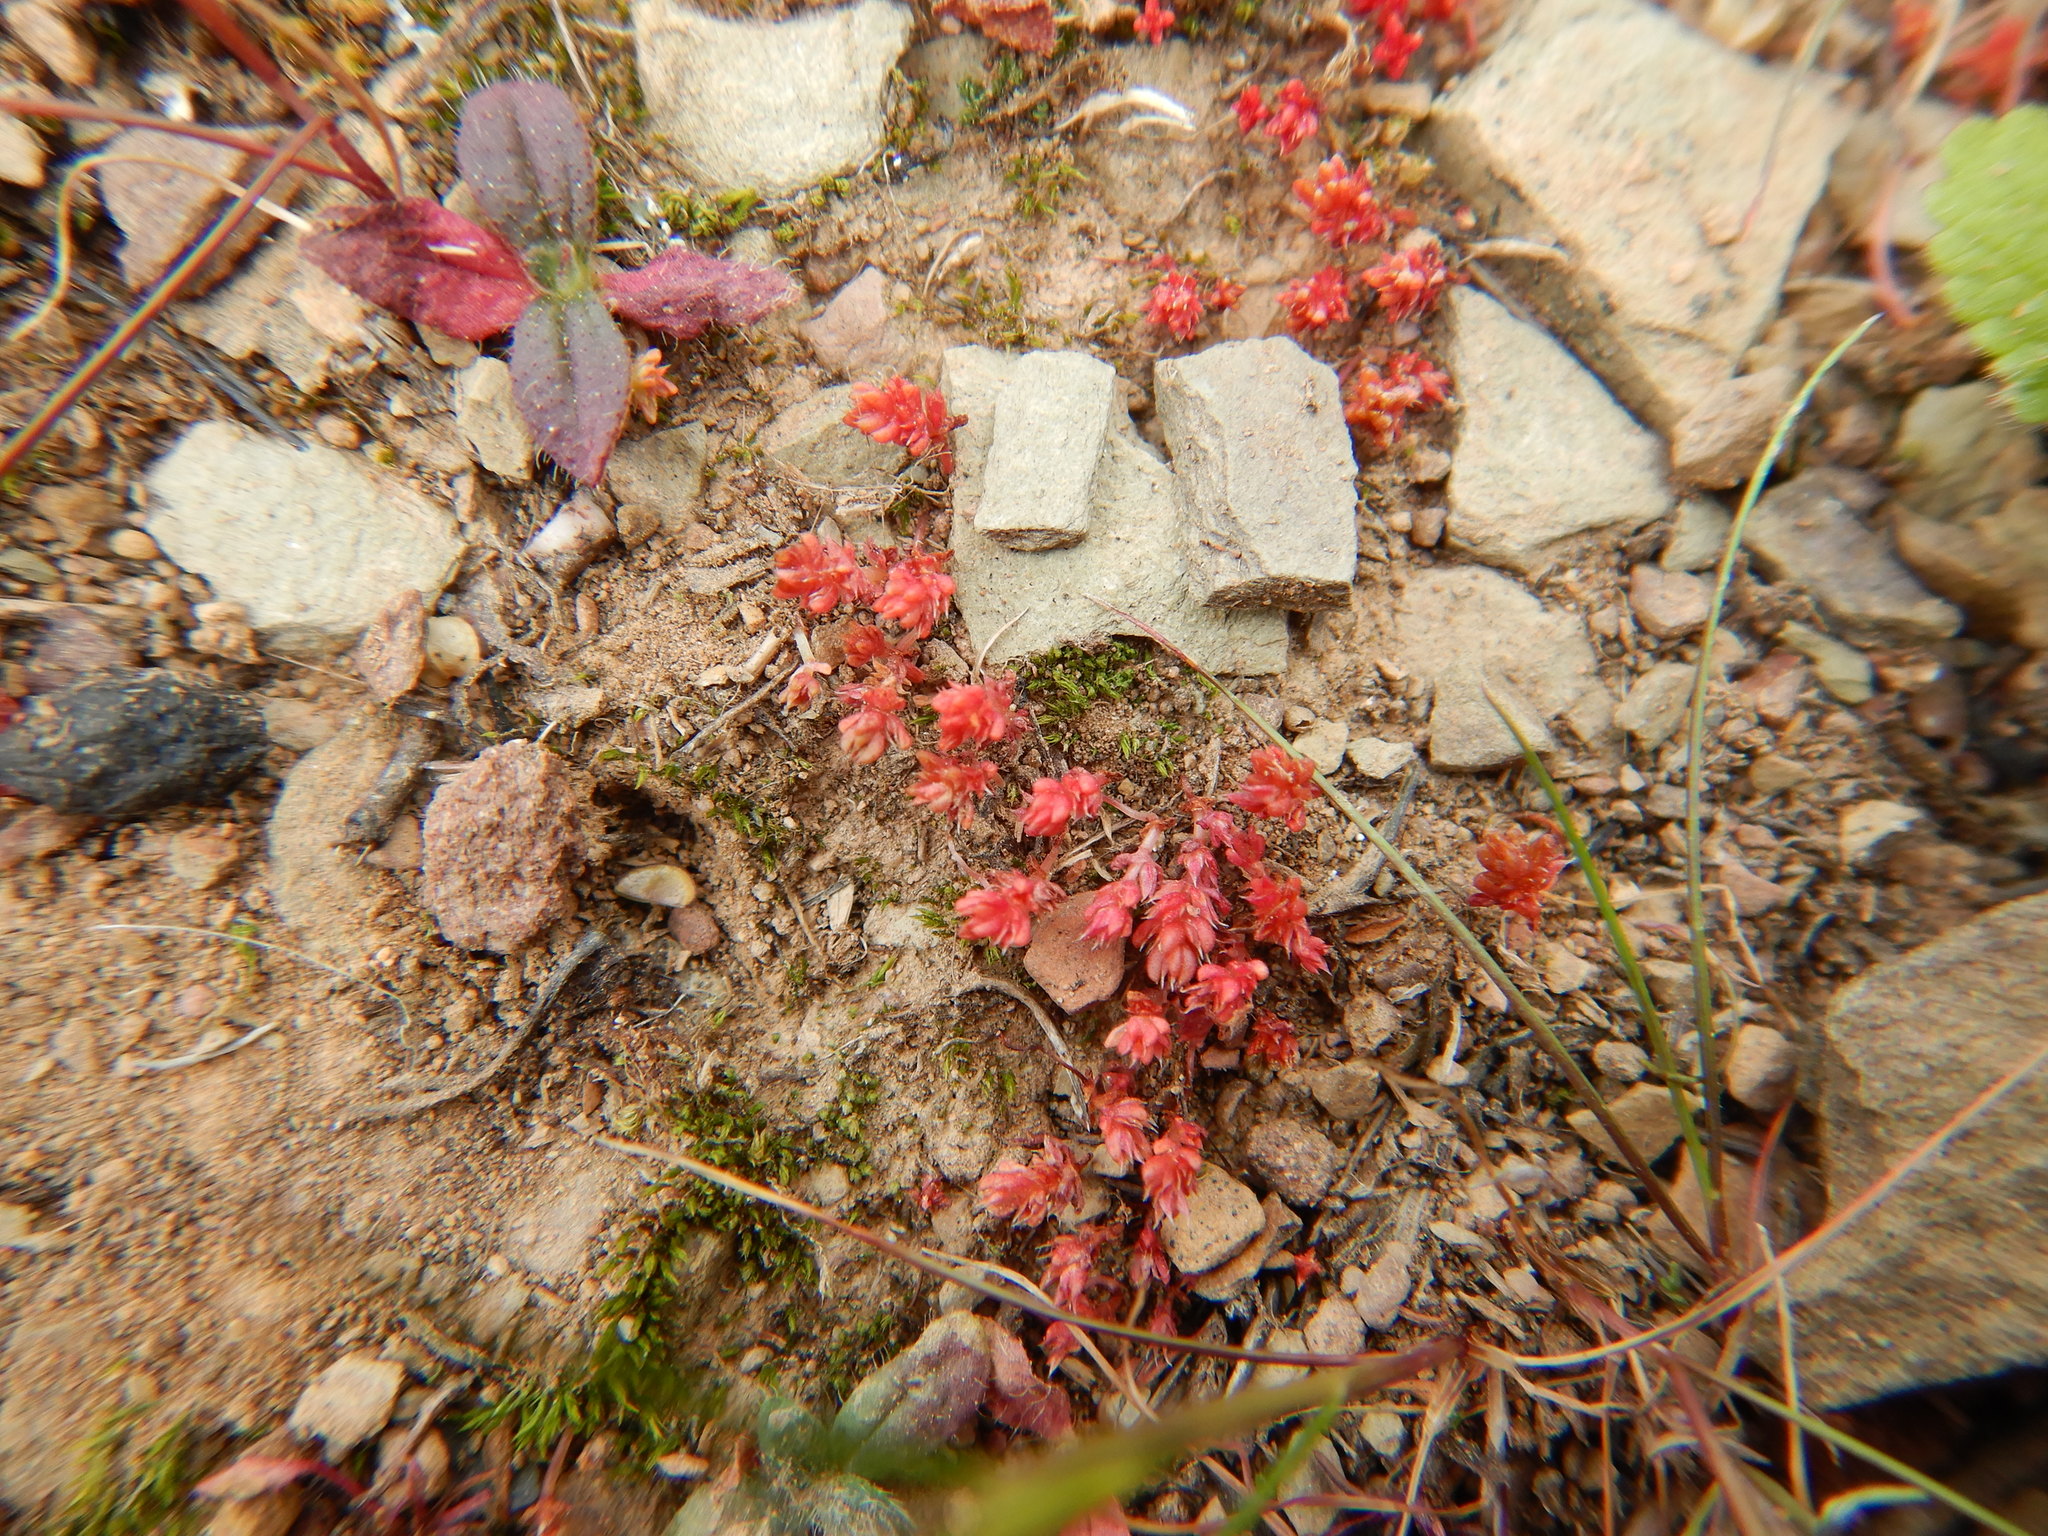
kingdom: Plantae
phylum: Tracheophyta
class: Magnoliopsida
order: Saxifragales
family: Crassulaceae
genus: Crassula
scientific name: Crassula tillaea
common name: Mossy stonecrop
